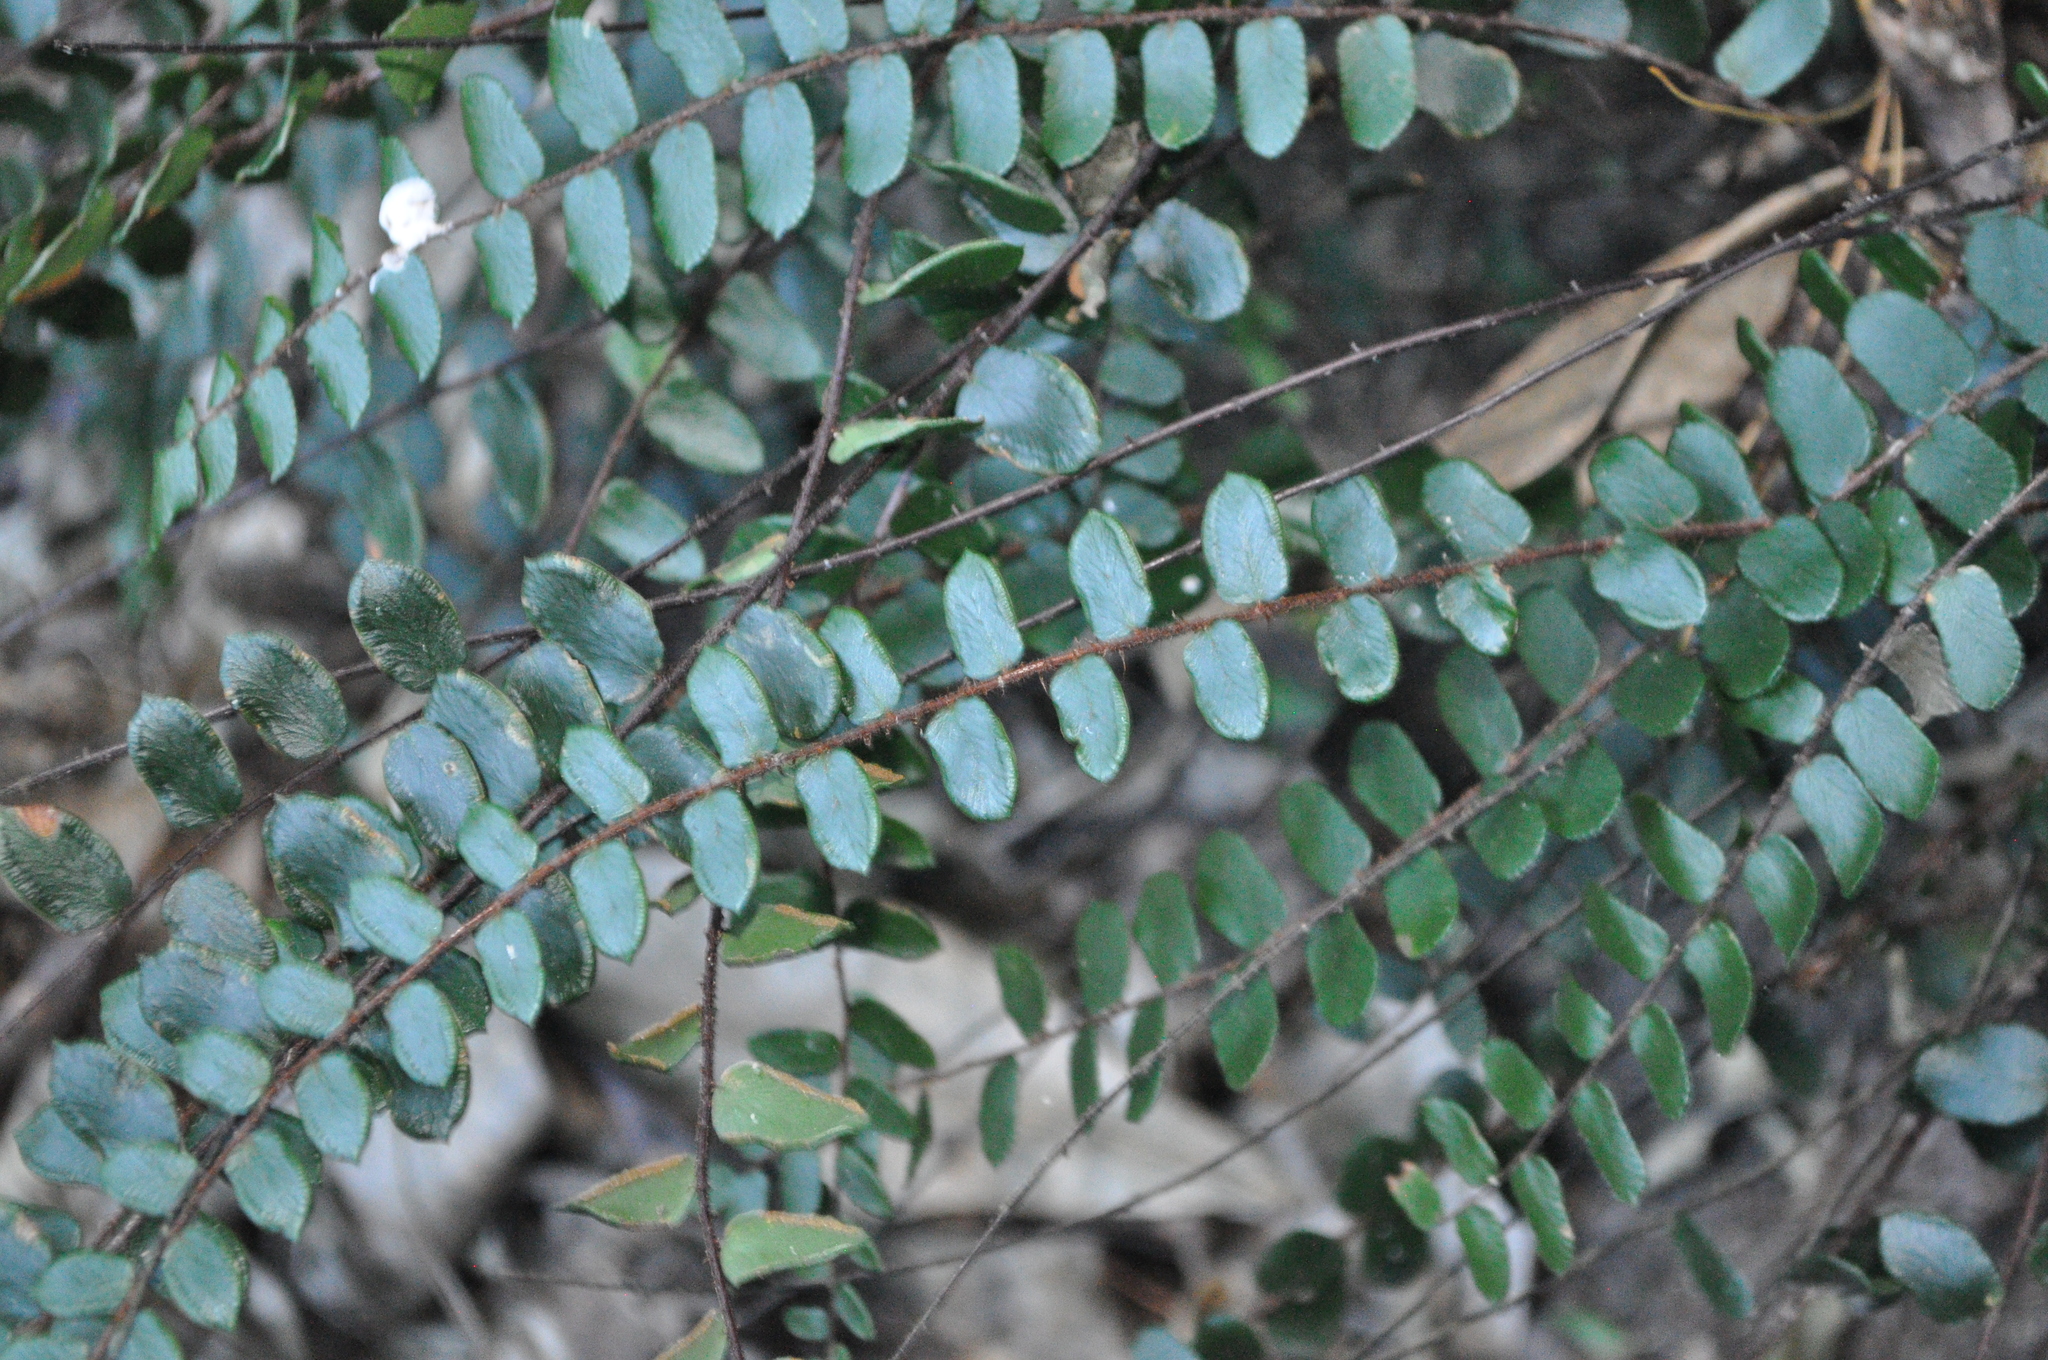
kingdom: Plantae
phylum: Tracheophyta
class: Polypodiopsida
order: Polypodiales
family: Pteridaceae
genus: Pellaea
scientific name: Pellaea rotundifolia
